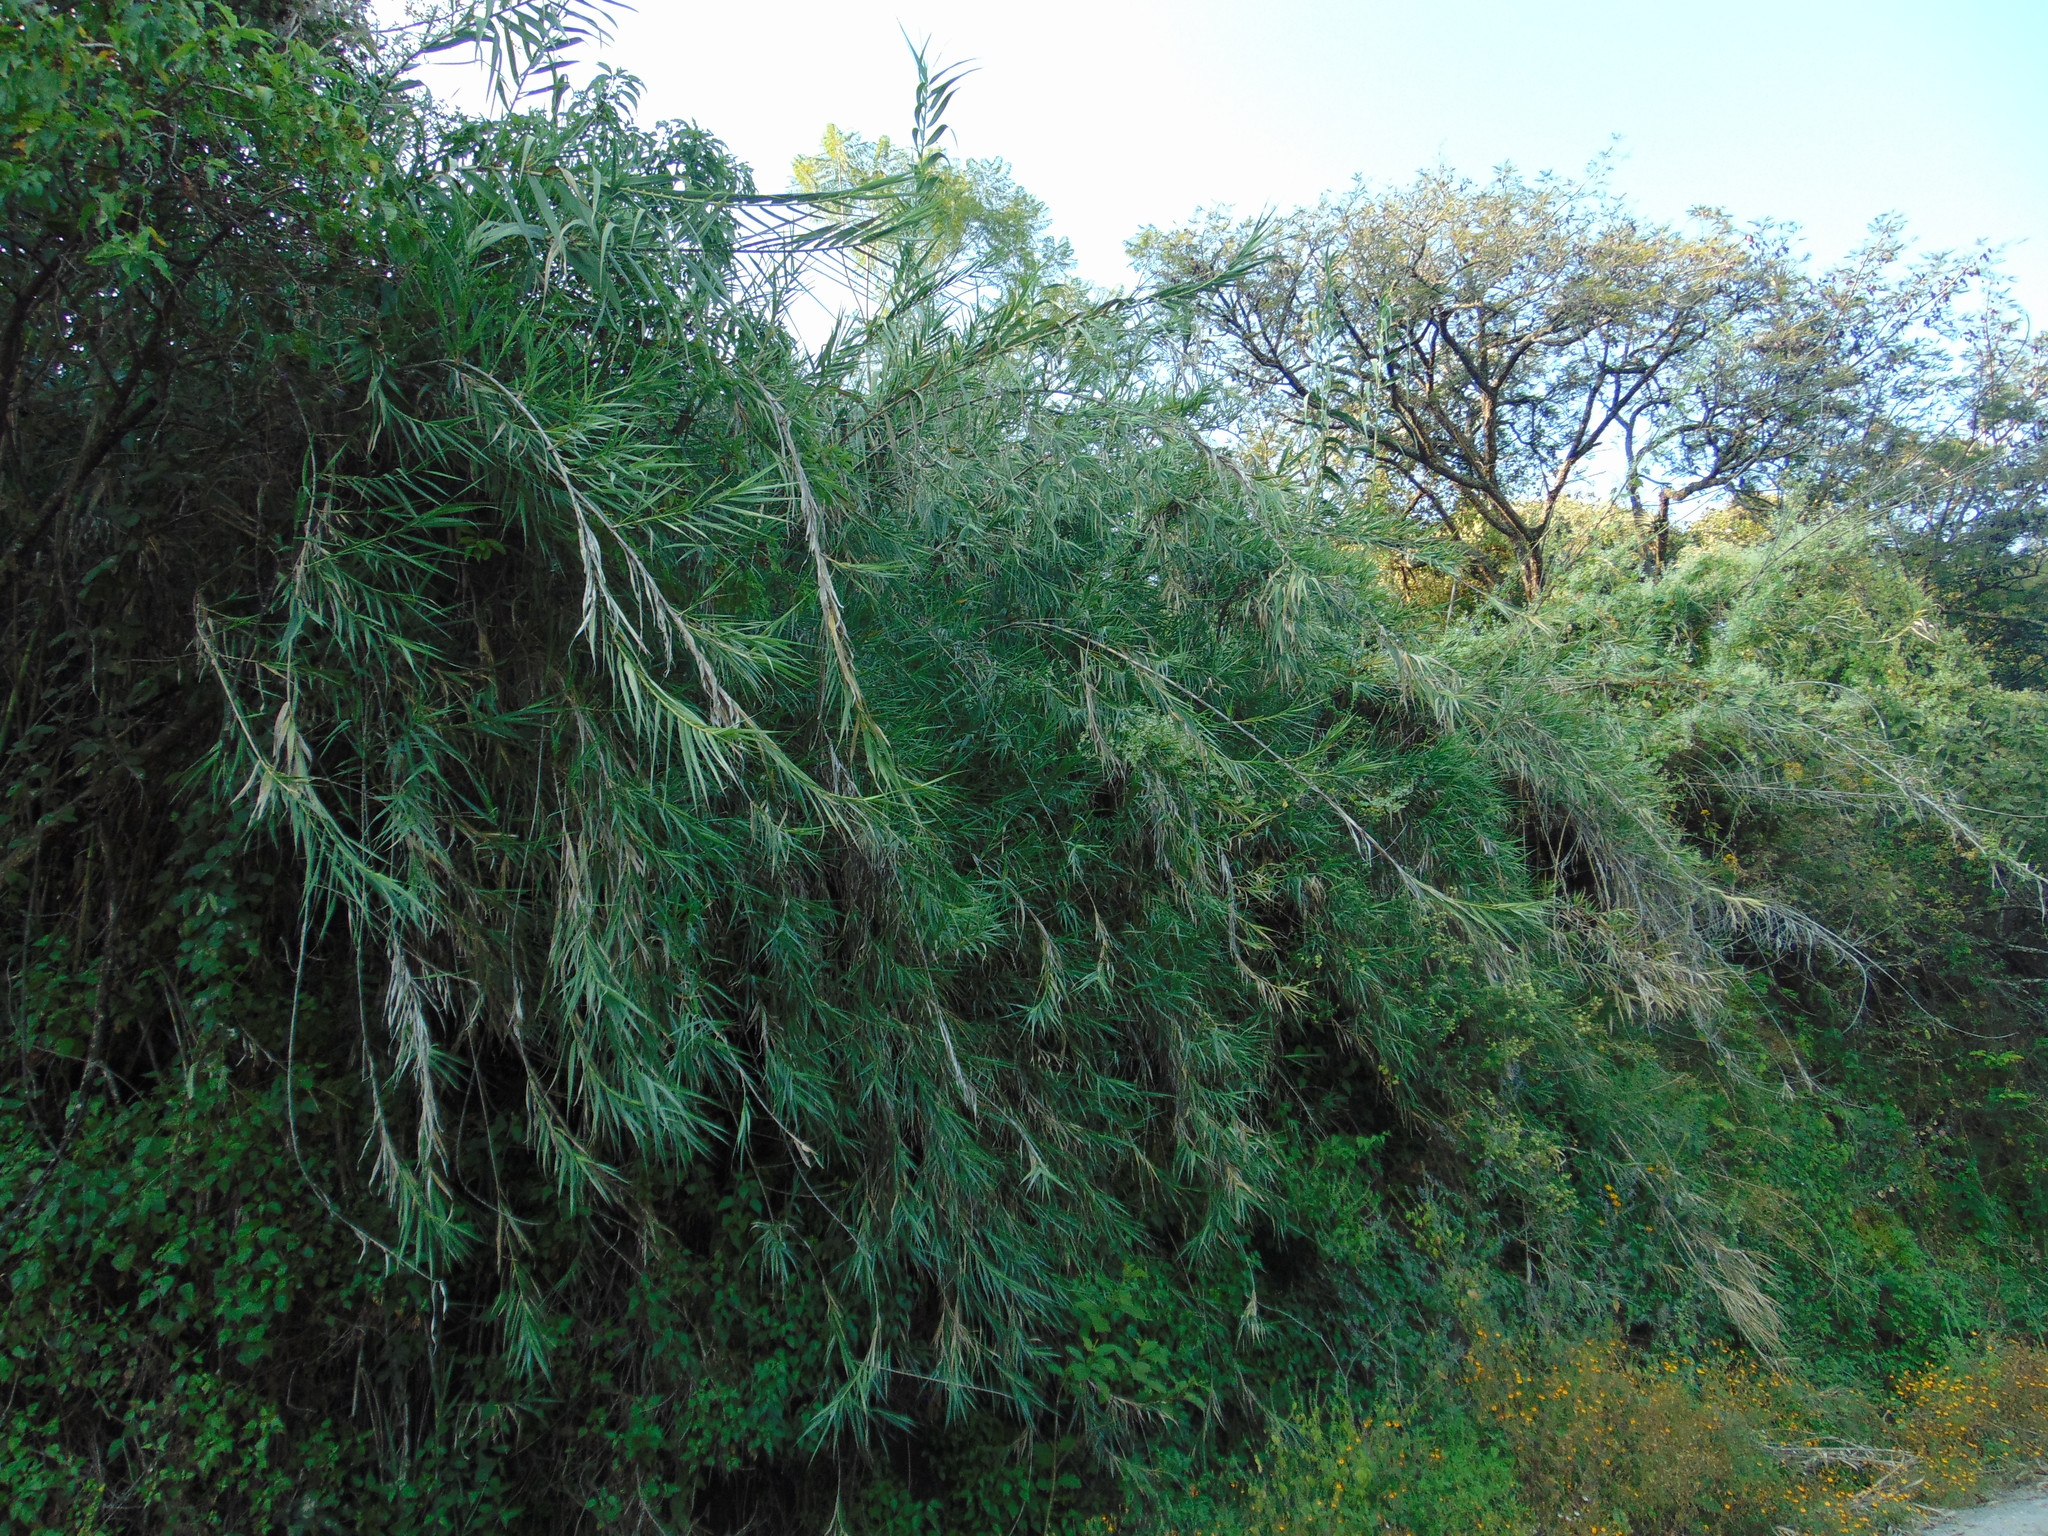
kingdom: Plantae
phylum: Tracheophyta
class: Liliopsida
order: Poales
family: Poaceae
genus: Arundo
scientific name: Arundo donax
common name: Giant reed
